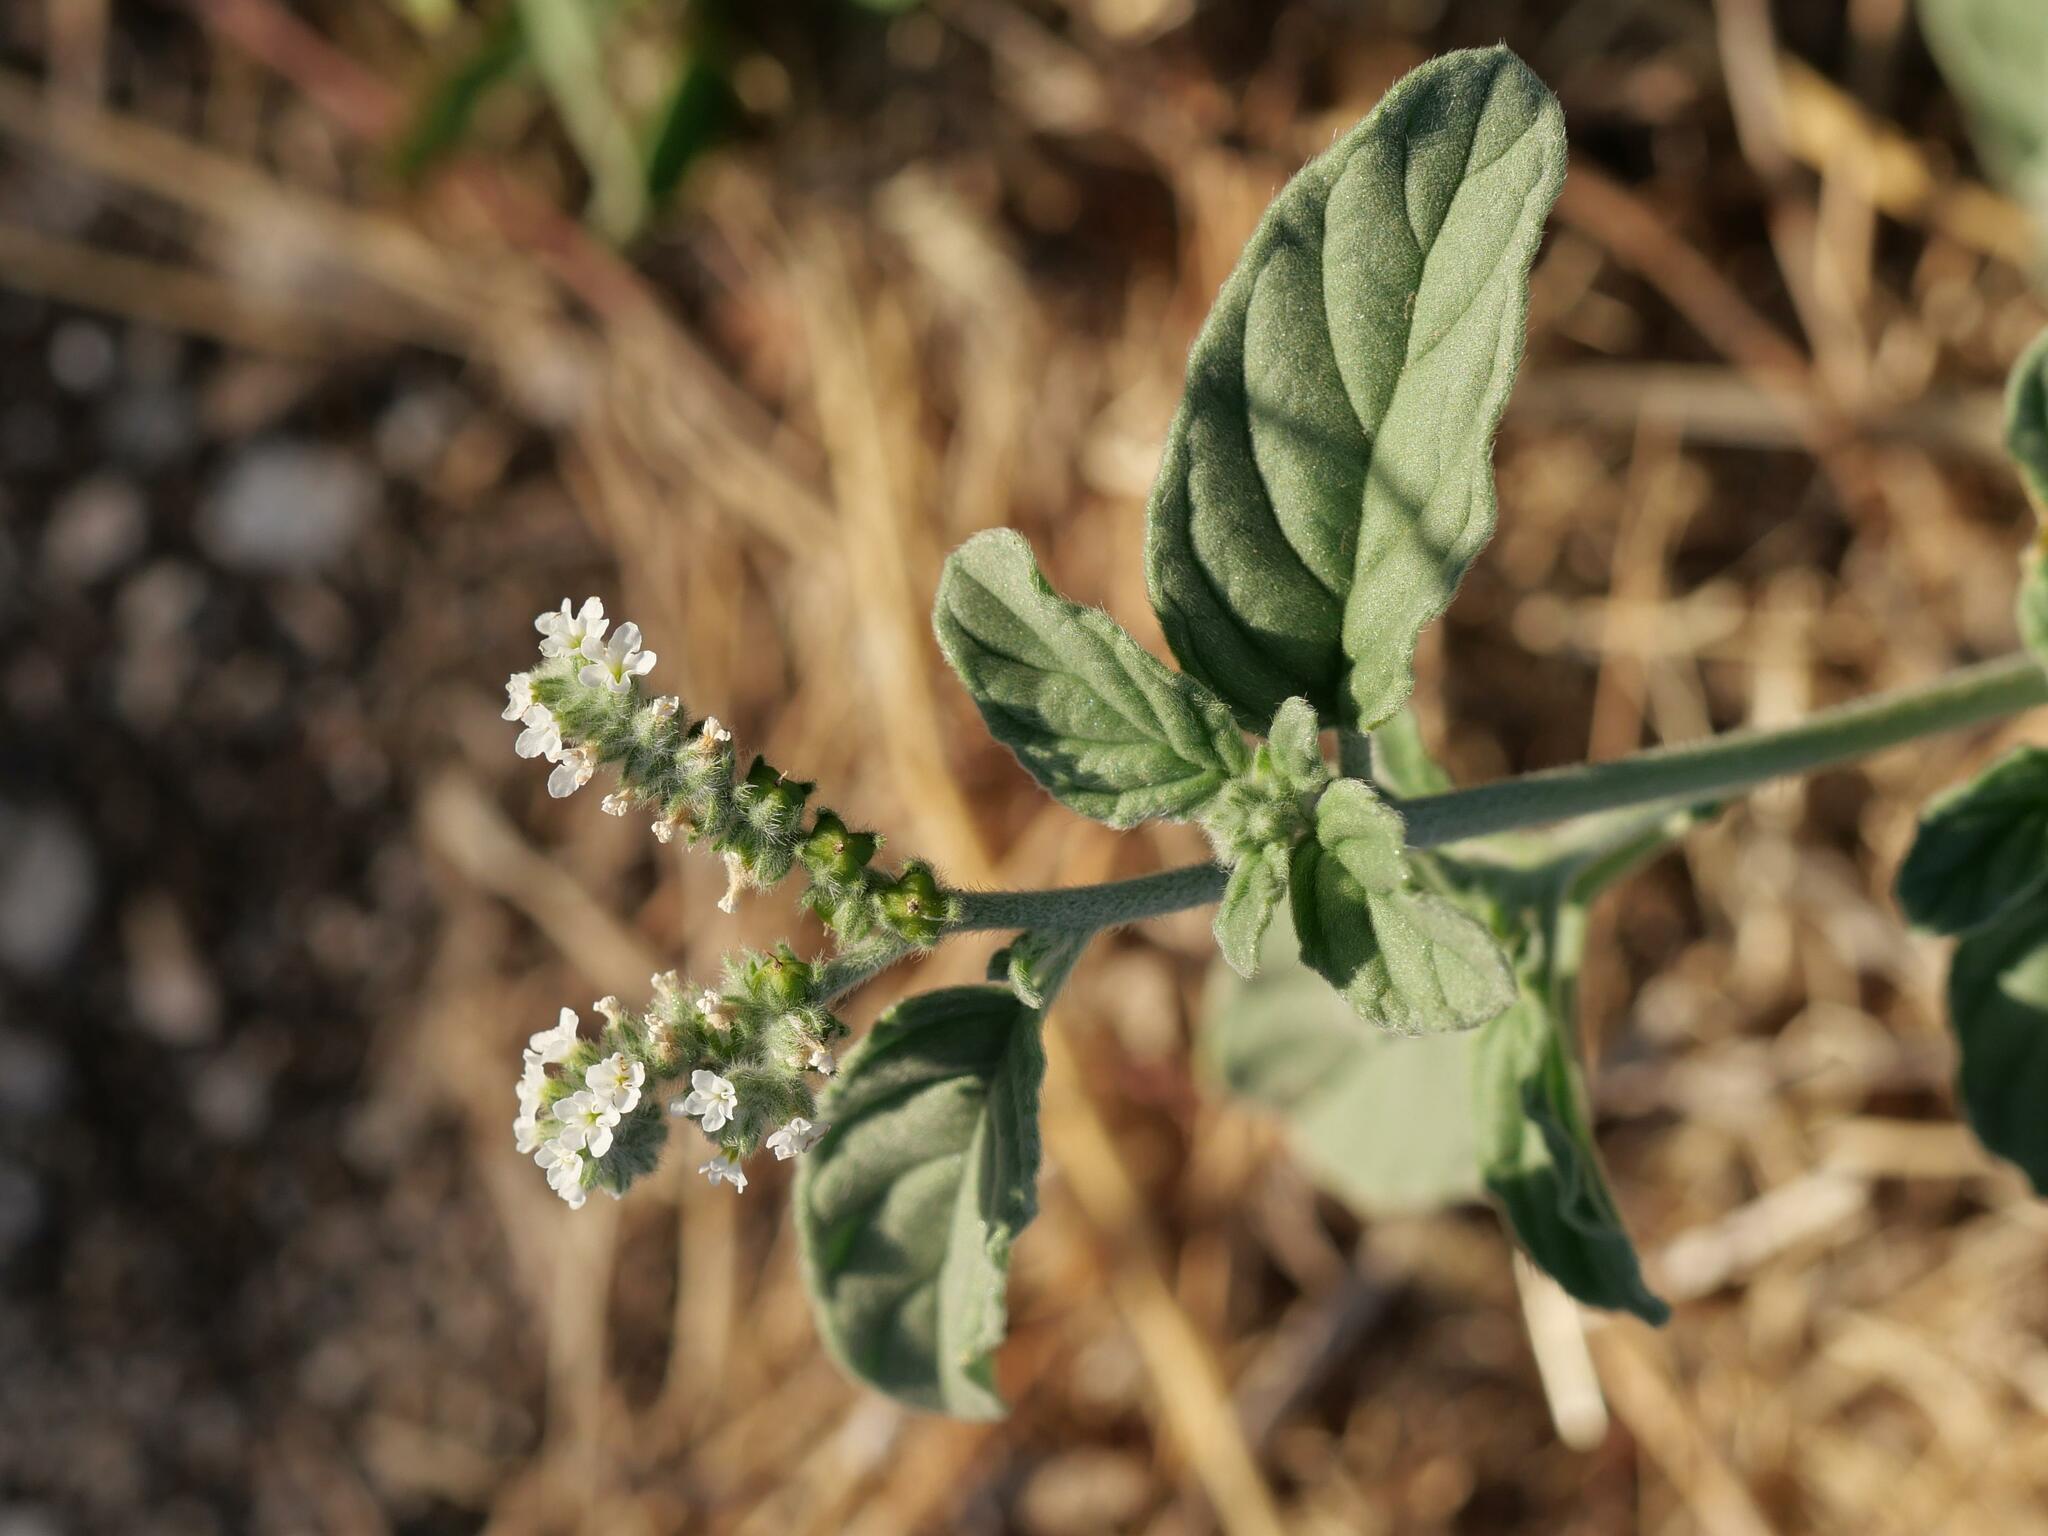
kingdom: Plantae
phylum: Tracheophyta
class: Magnoliopsida
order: Boraginales
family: Heliotropiaceae
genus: Heliotropium
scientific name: Heliotropium europaeum
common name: European heliotrope
